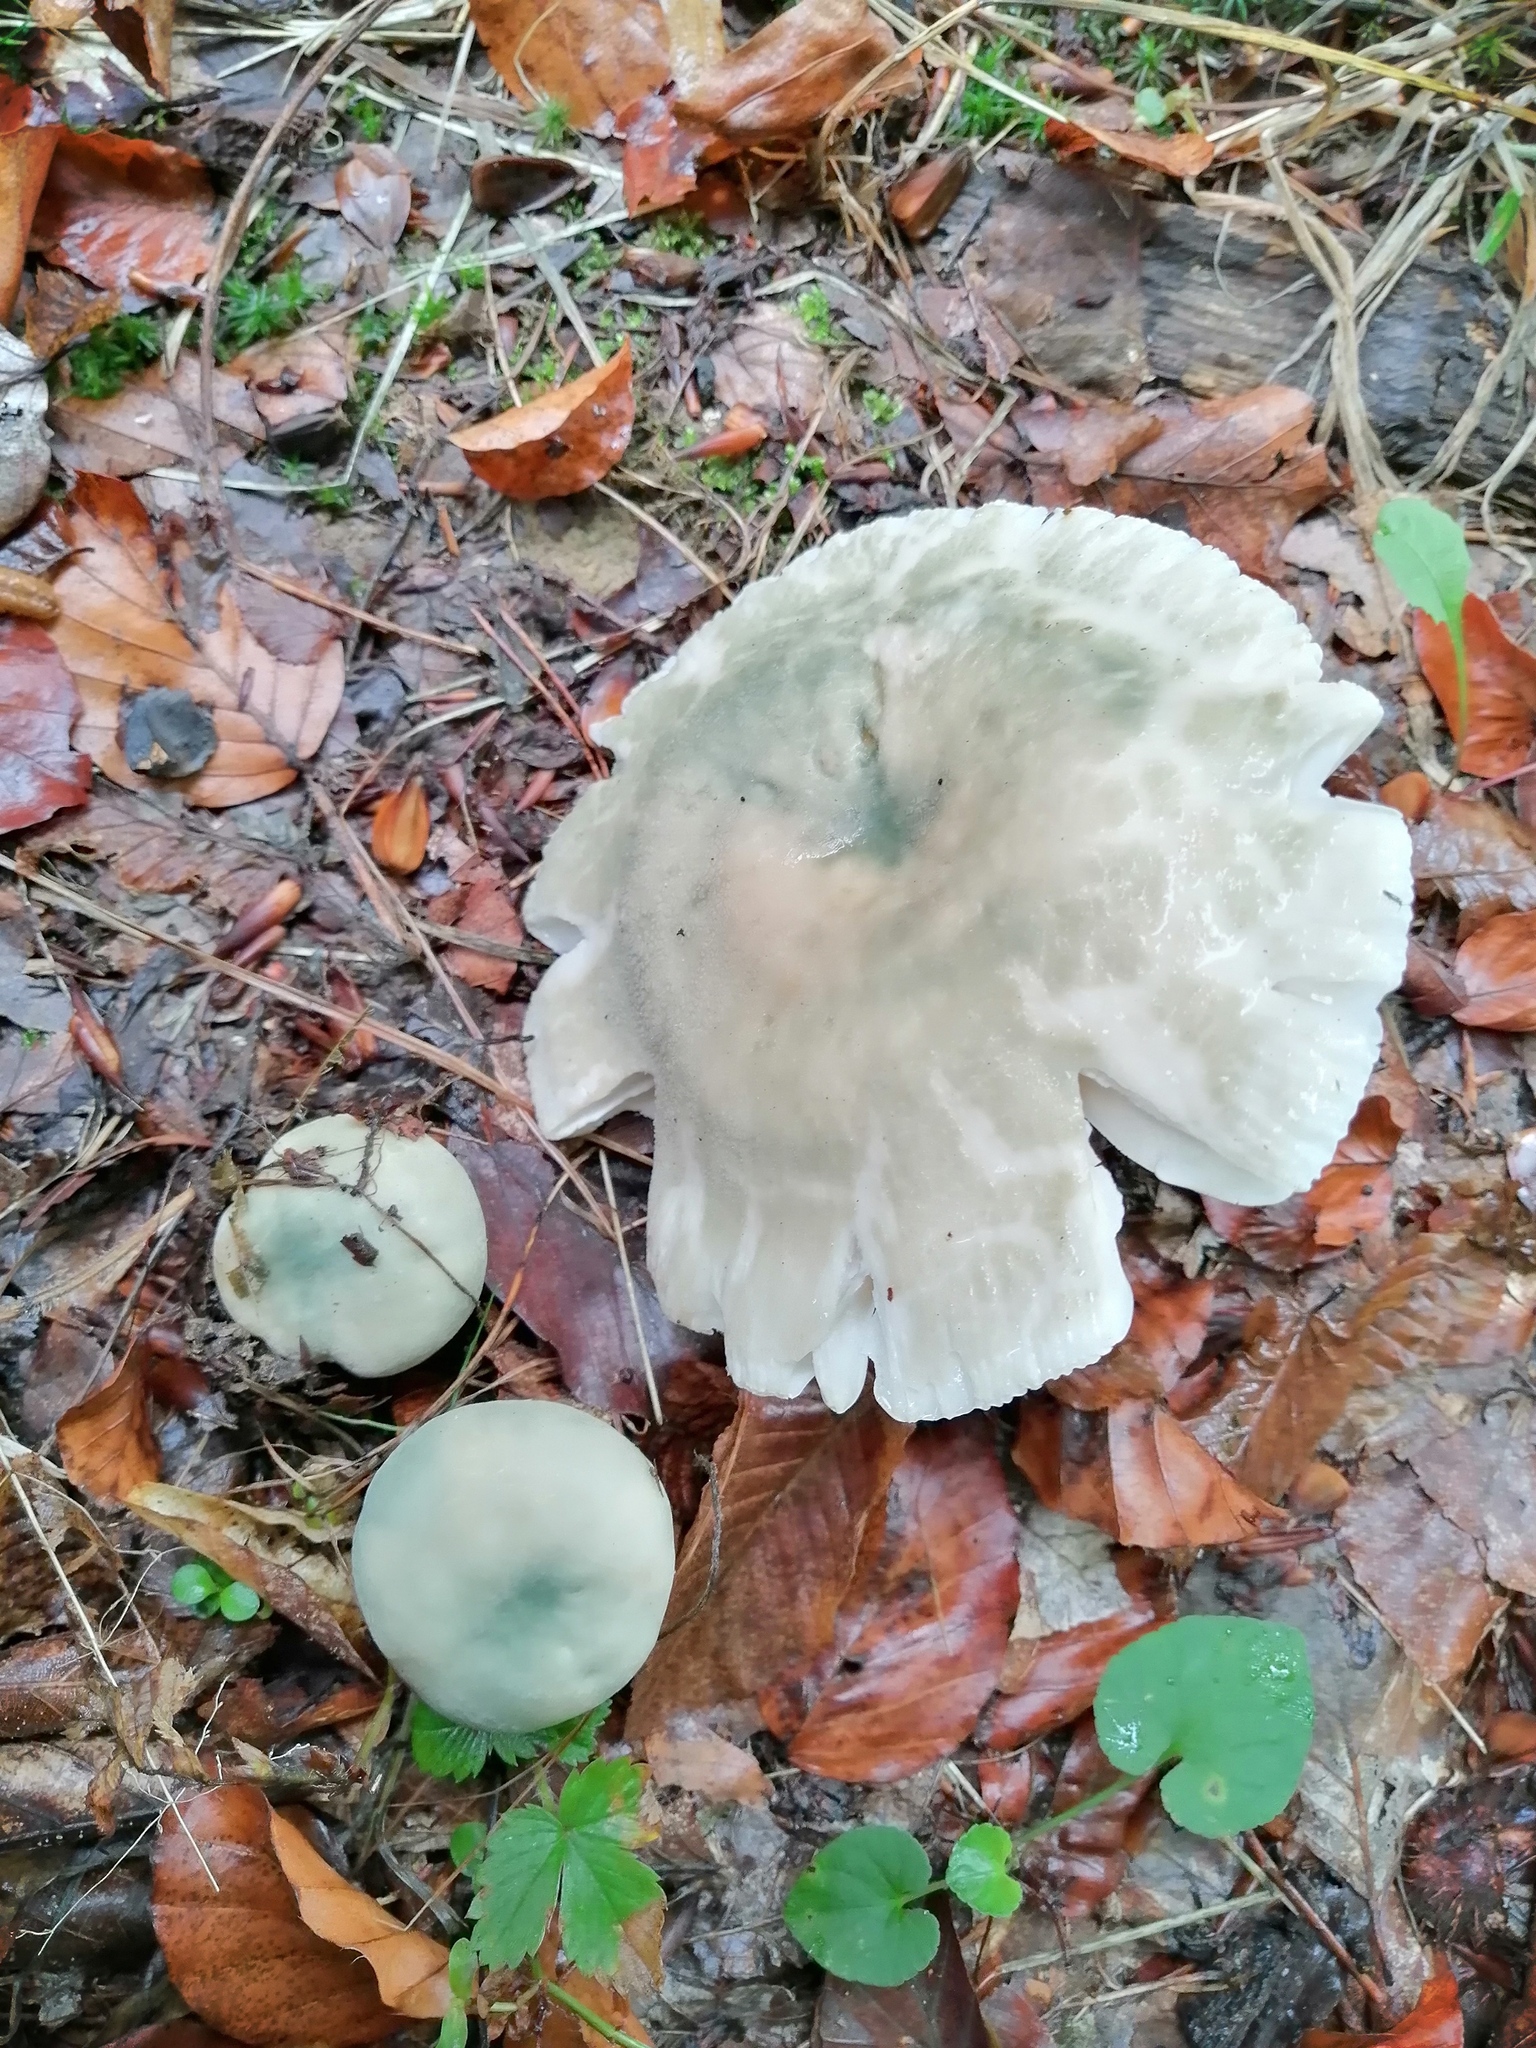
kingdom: Fungi
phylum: Basidiomycota
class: Agaricomycetes
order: Russulales
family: Russulaceae
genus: Russula
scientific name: Russula virescens
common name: Greencracked brittlegill
